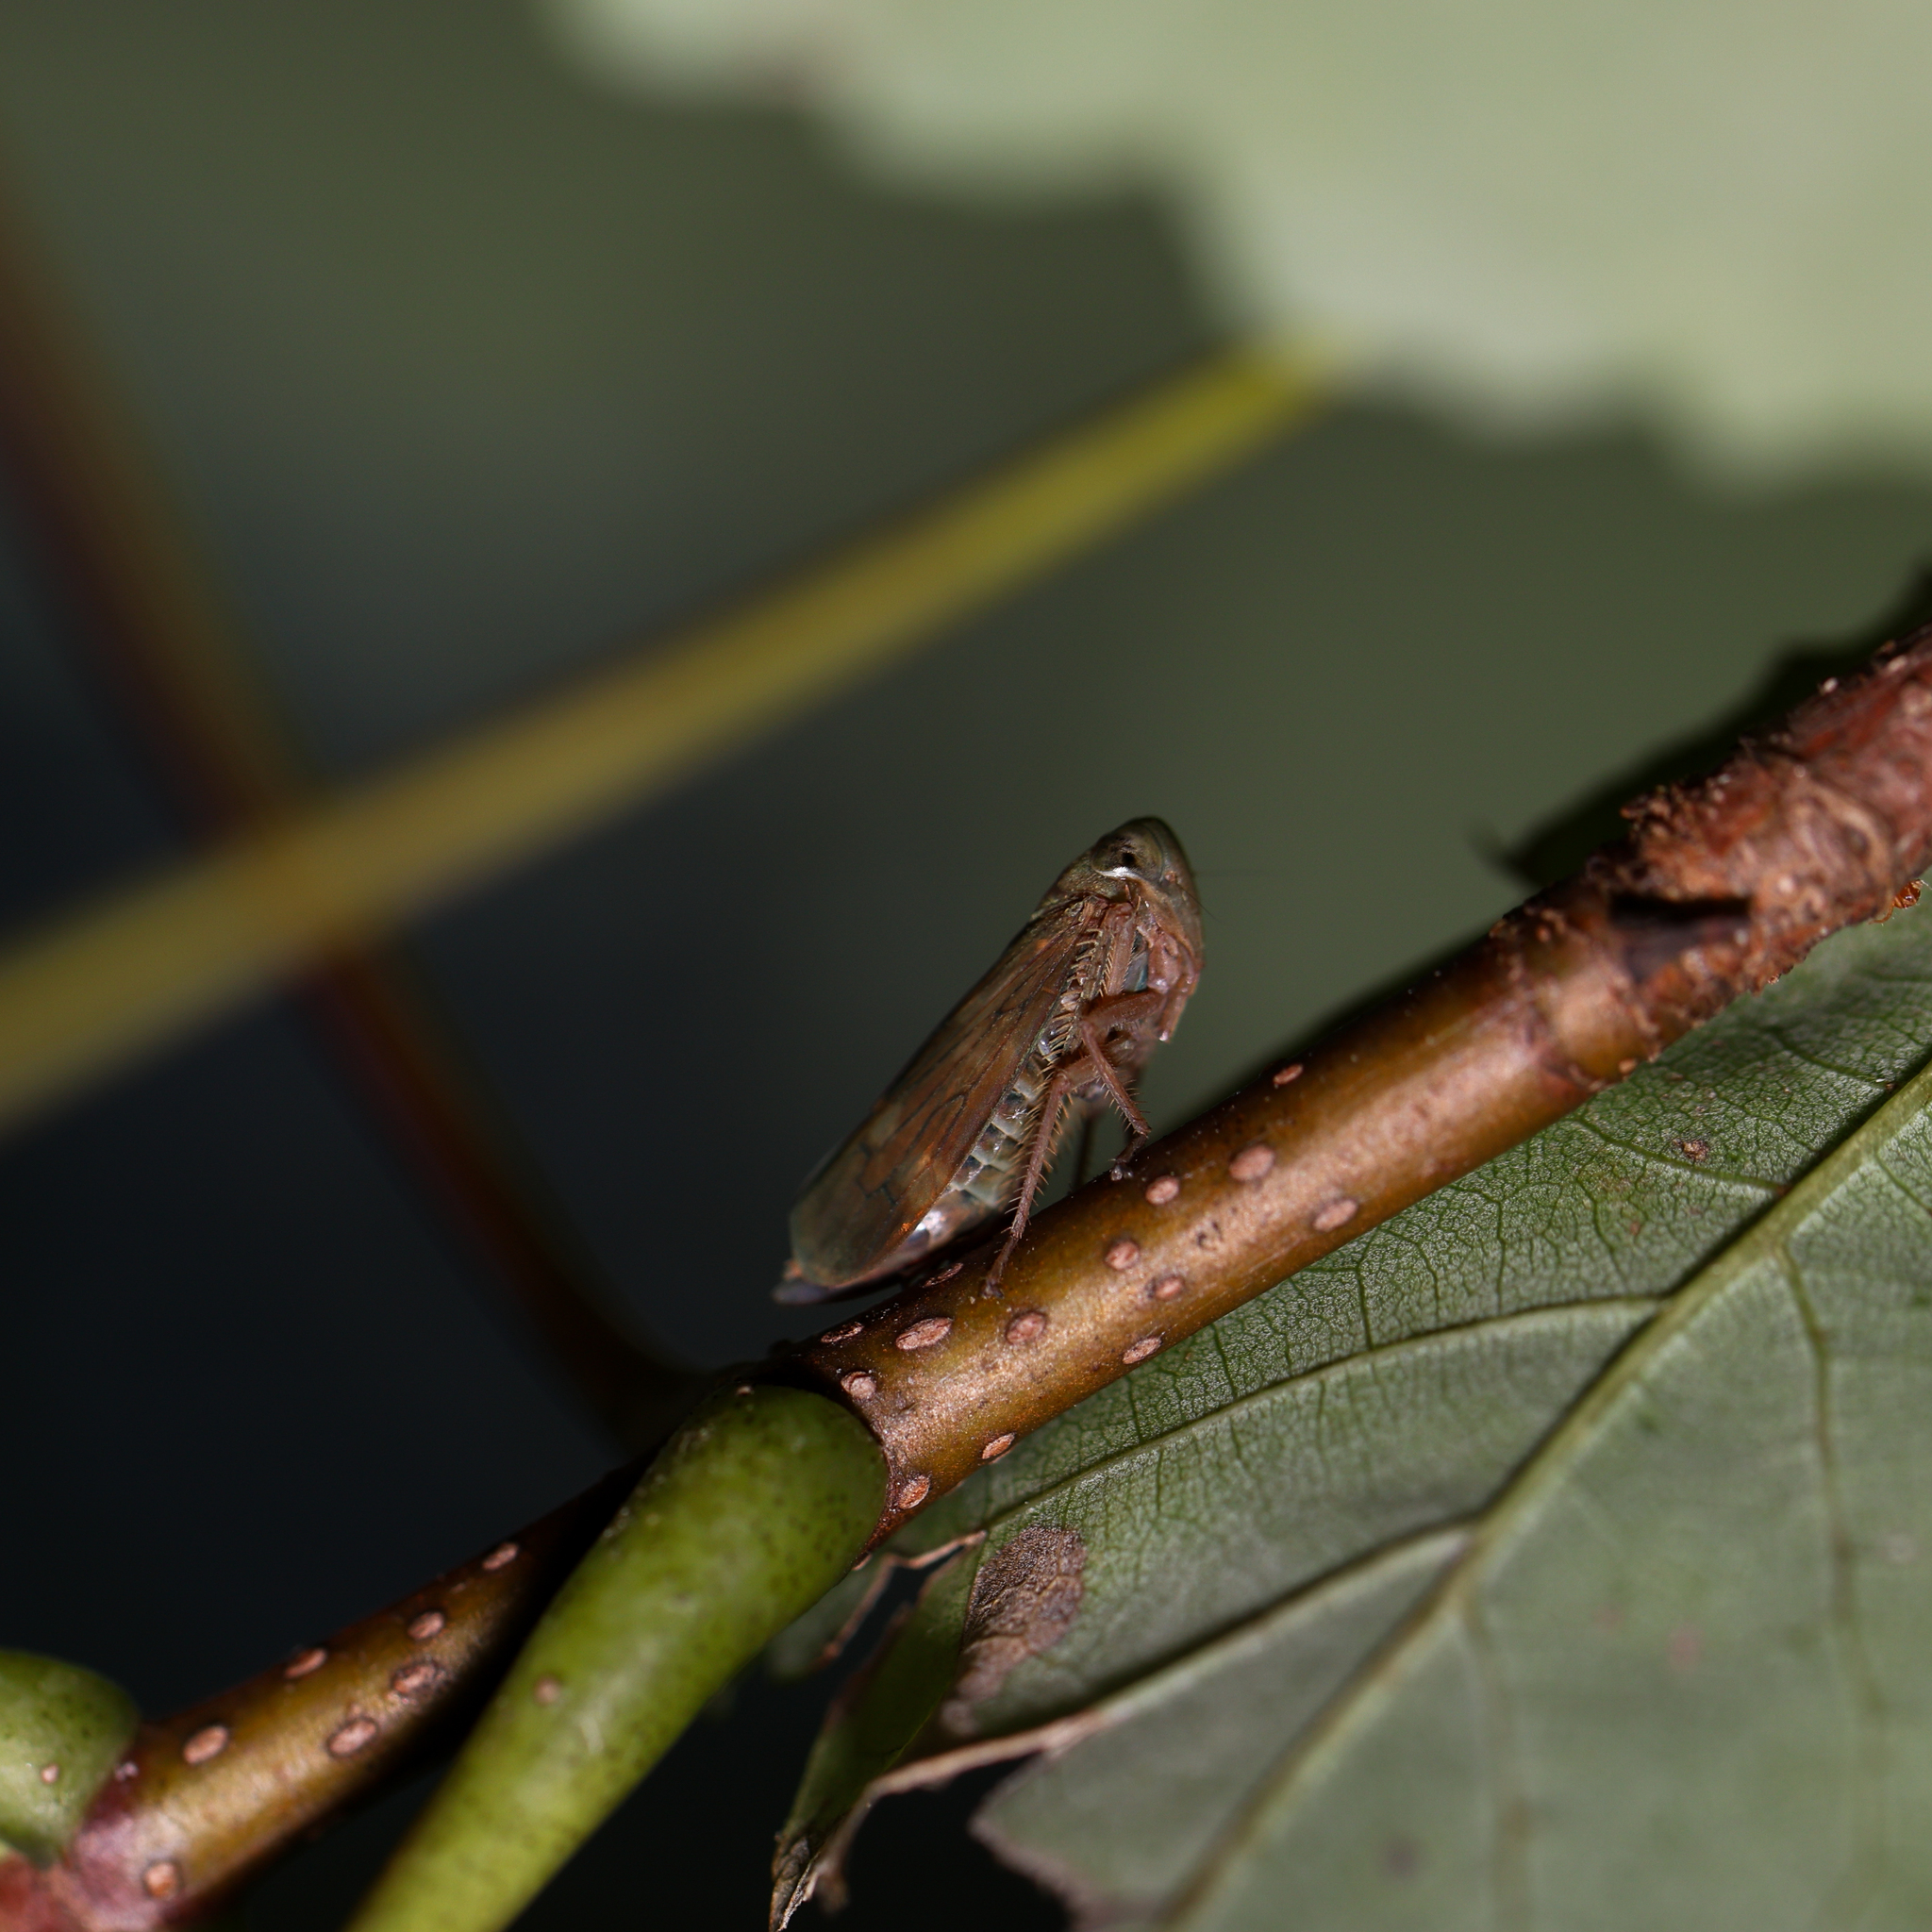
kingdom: Animalia
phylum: Arthropoda
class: Insecta
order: Hemiptera
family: Cicadellidae
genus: Jikradia
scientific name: Jikradia olitoria
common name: Coppery leafhopper
